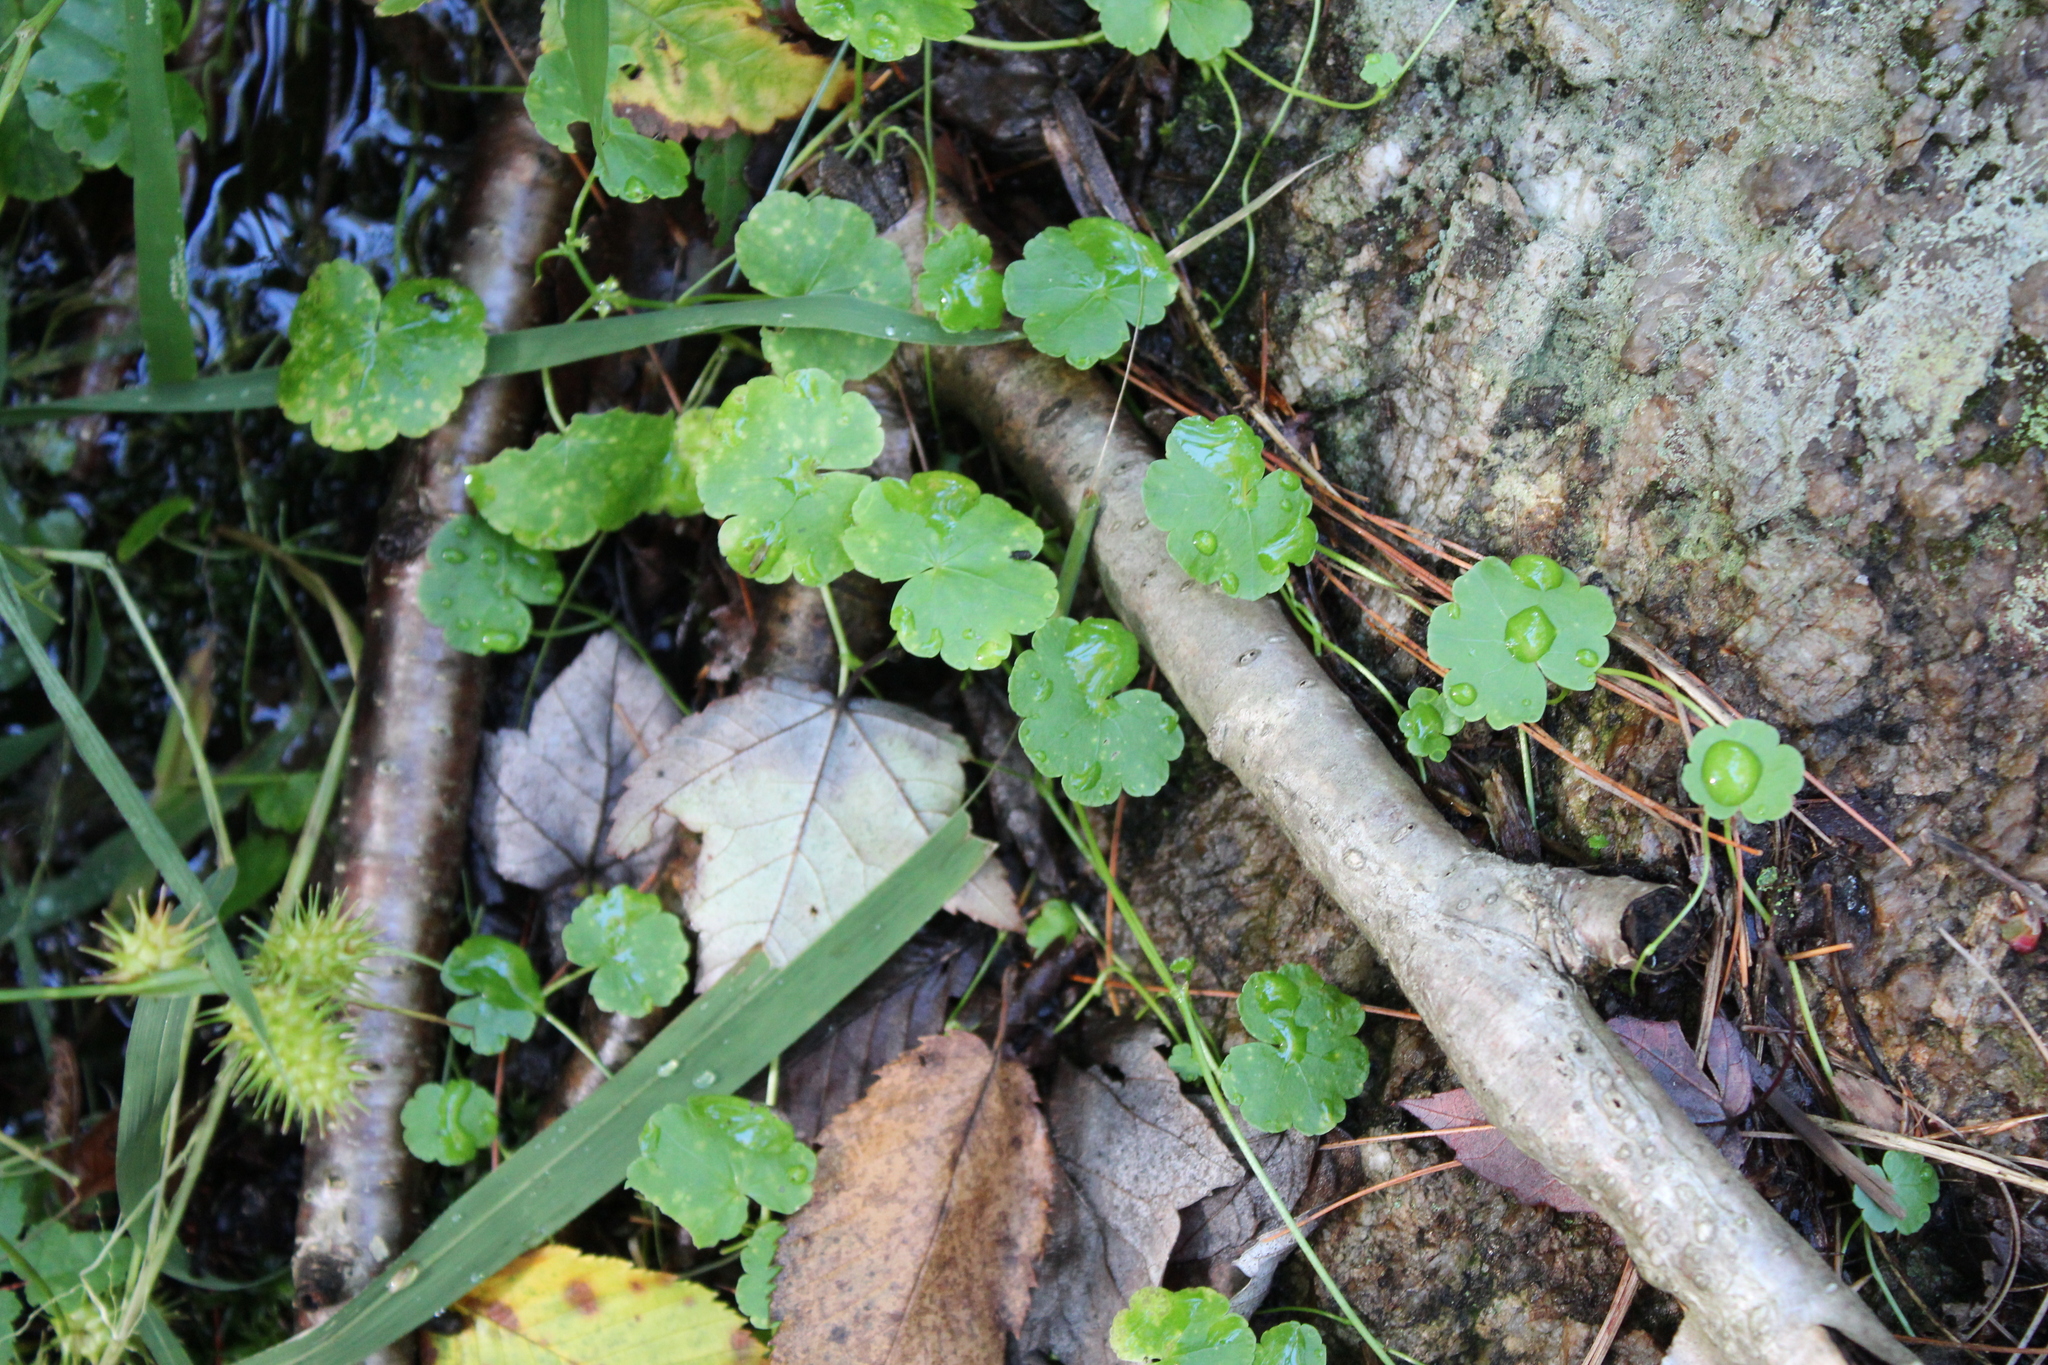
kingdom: Plantae
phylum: Tracheophyta
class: Magnoliopsida
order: Apiales
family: Araliaceae
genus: Hydrocotyle
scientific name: Hydrocotyle americana
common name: American water-pennywort
